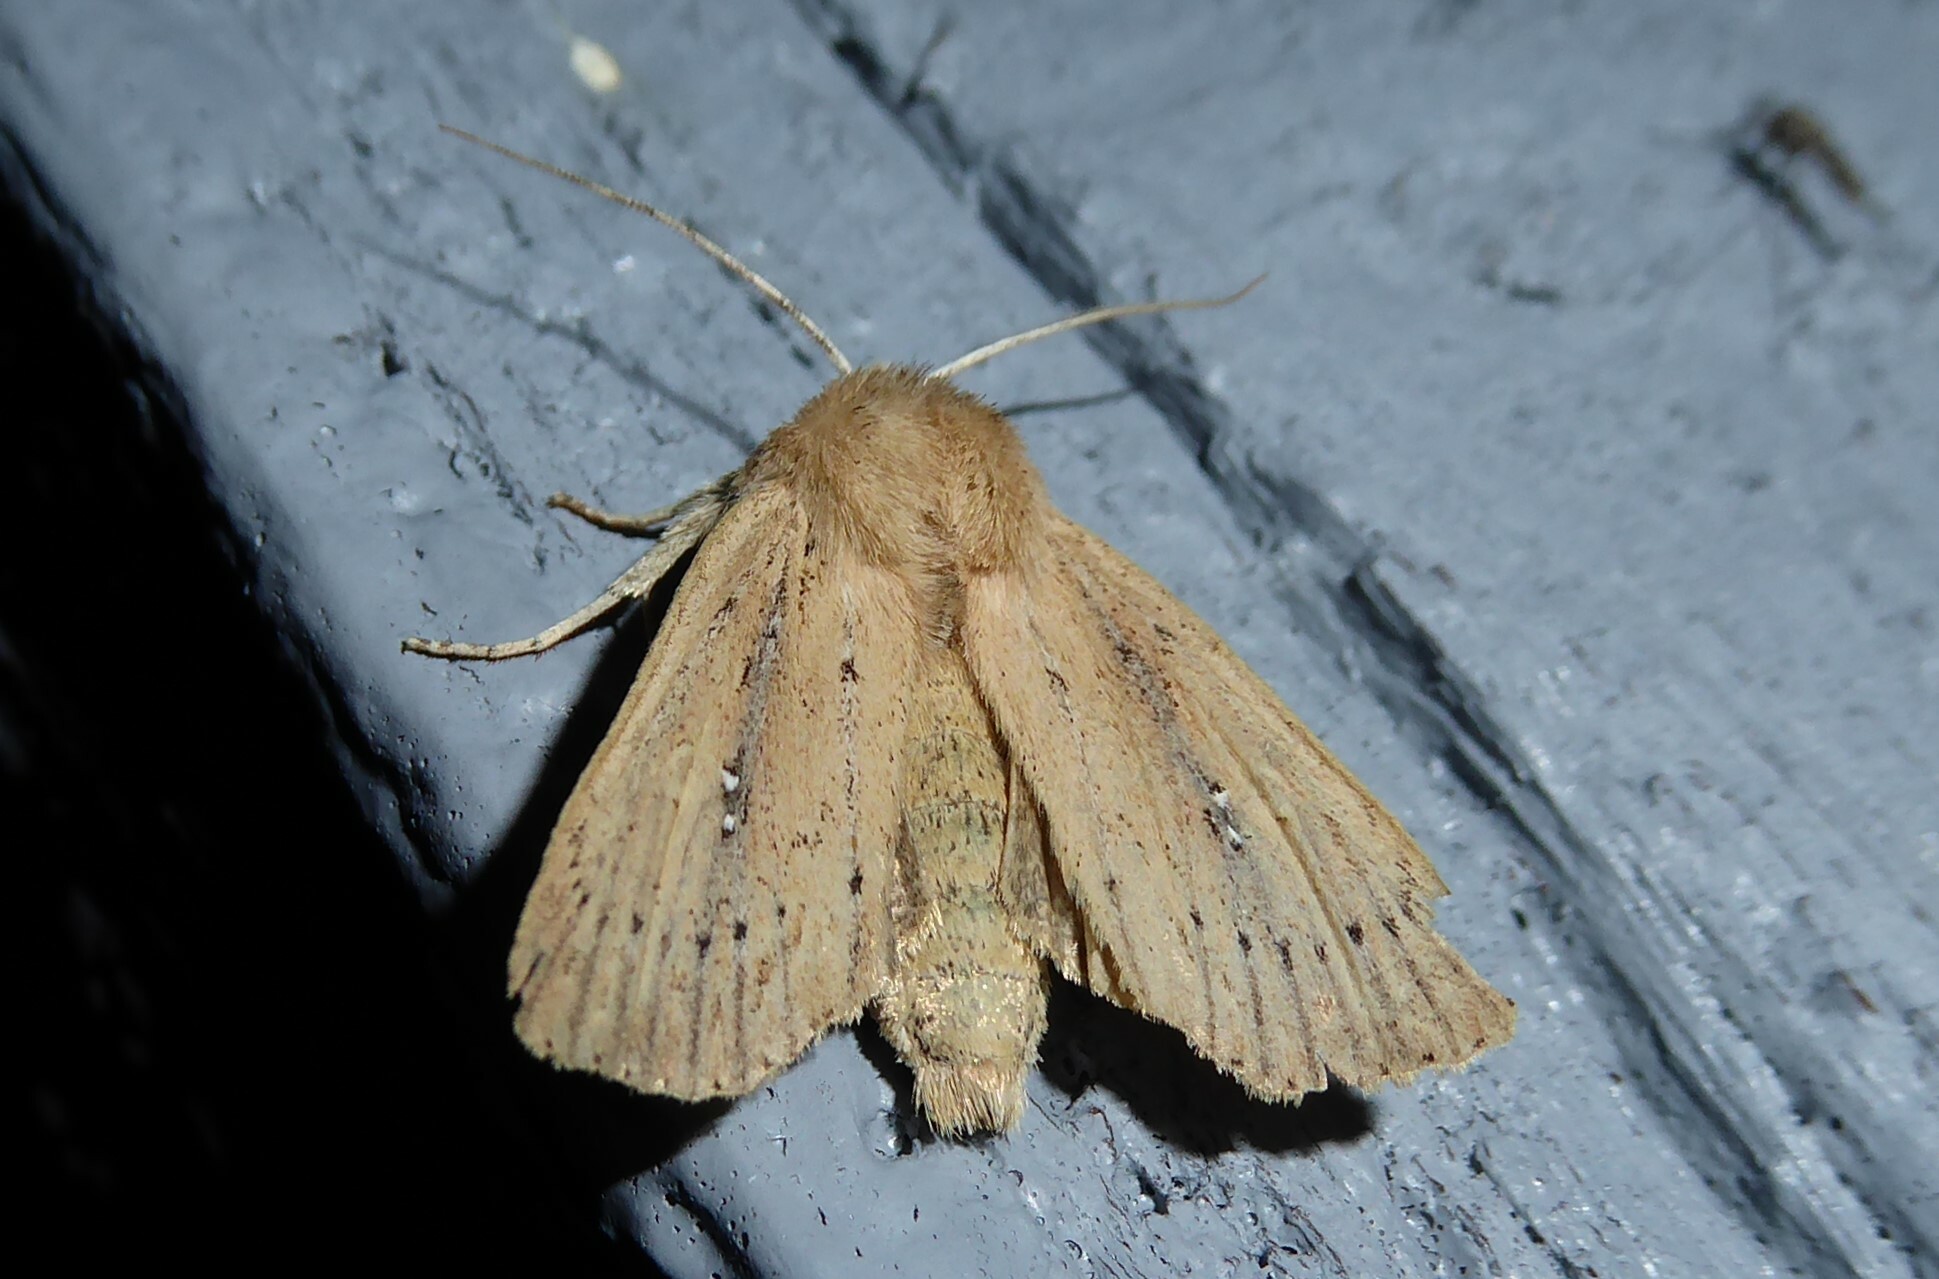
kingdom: Animalia
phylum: Arthropoda
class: Insecta
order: Lepidoptera
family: Noctuidae
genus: Ichneutica
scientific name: Ichneutica
